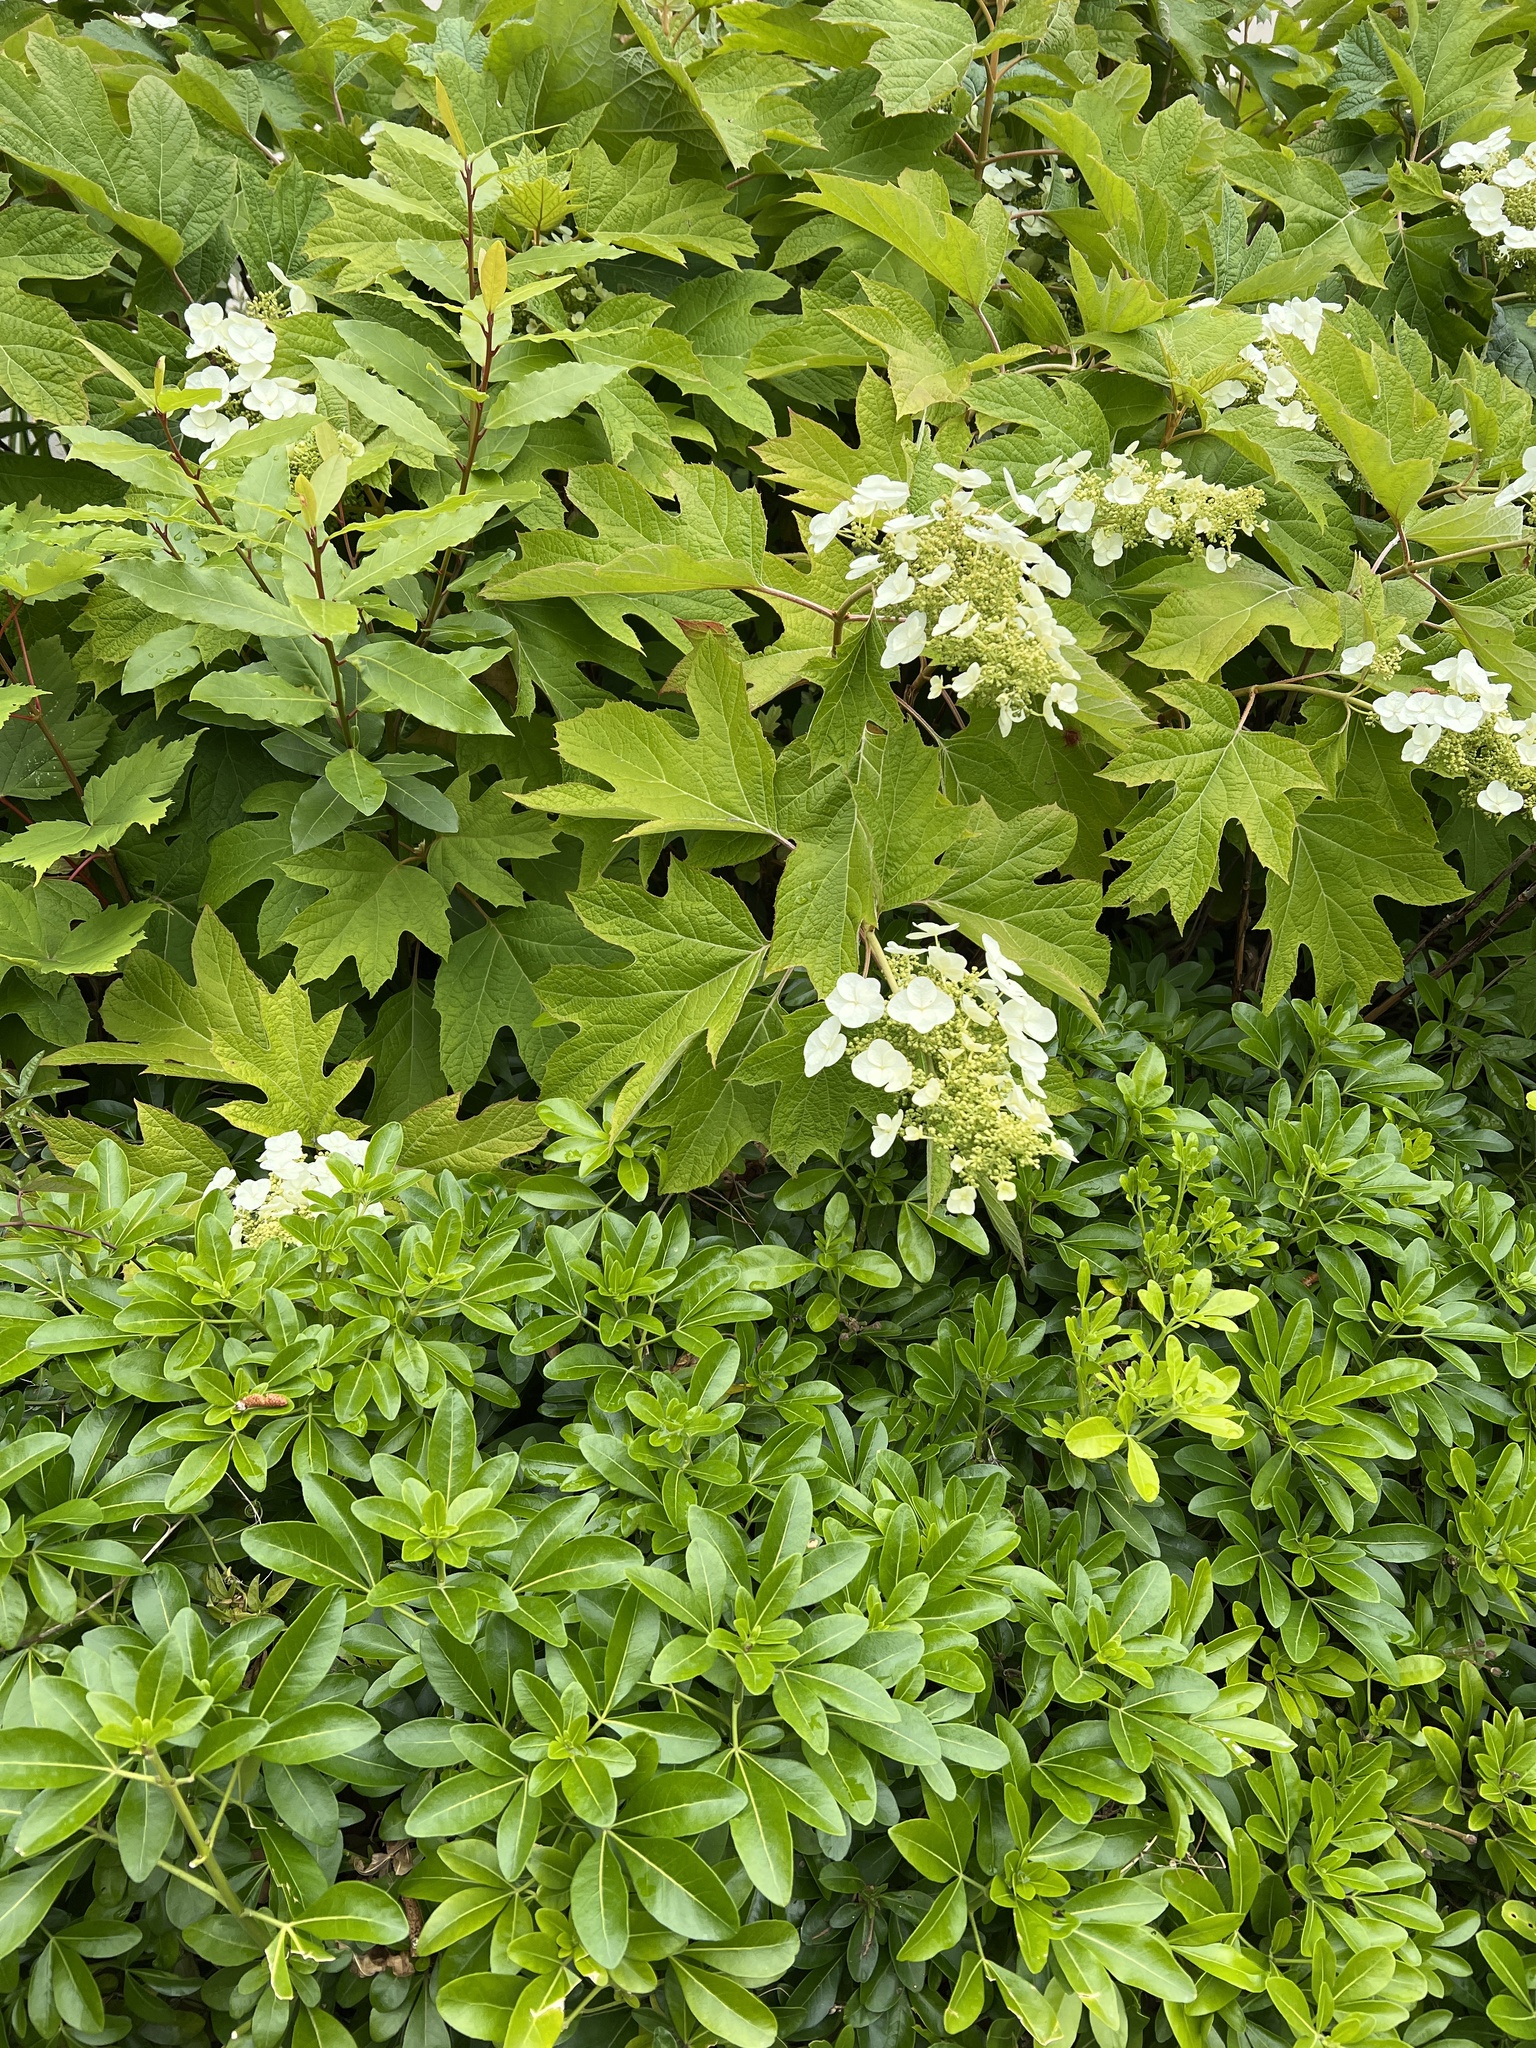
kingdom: Plantae
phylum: Tracheophyta
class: Magnoliopsida
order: Cornales
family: Hydrangeaceae
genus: Hydrangea
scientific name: Hydrangea quercifolia
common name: Oak-leaf hydrangea
